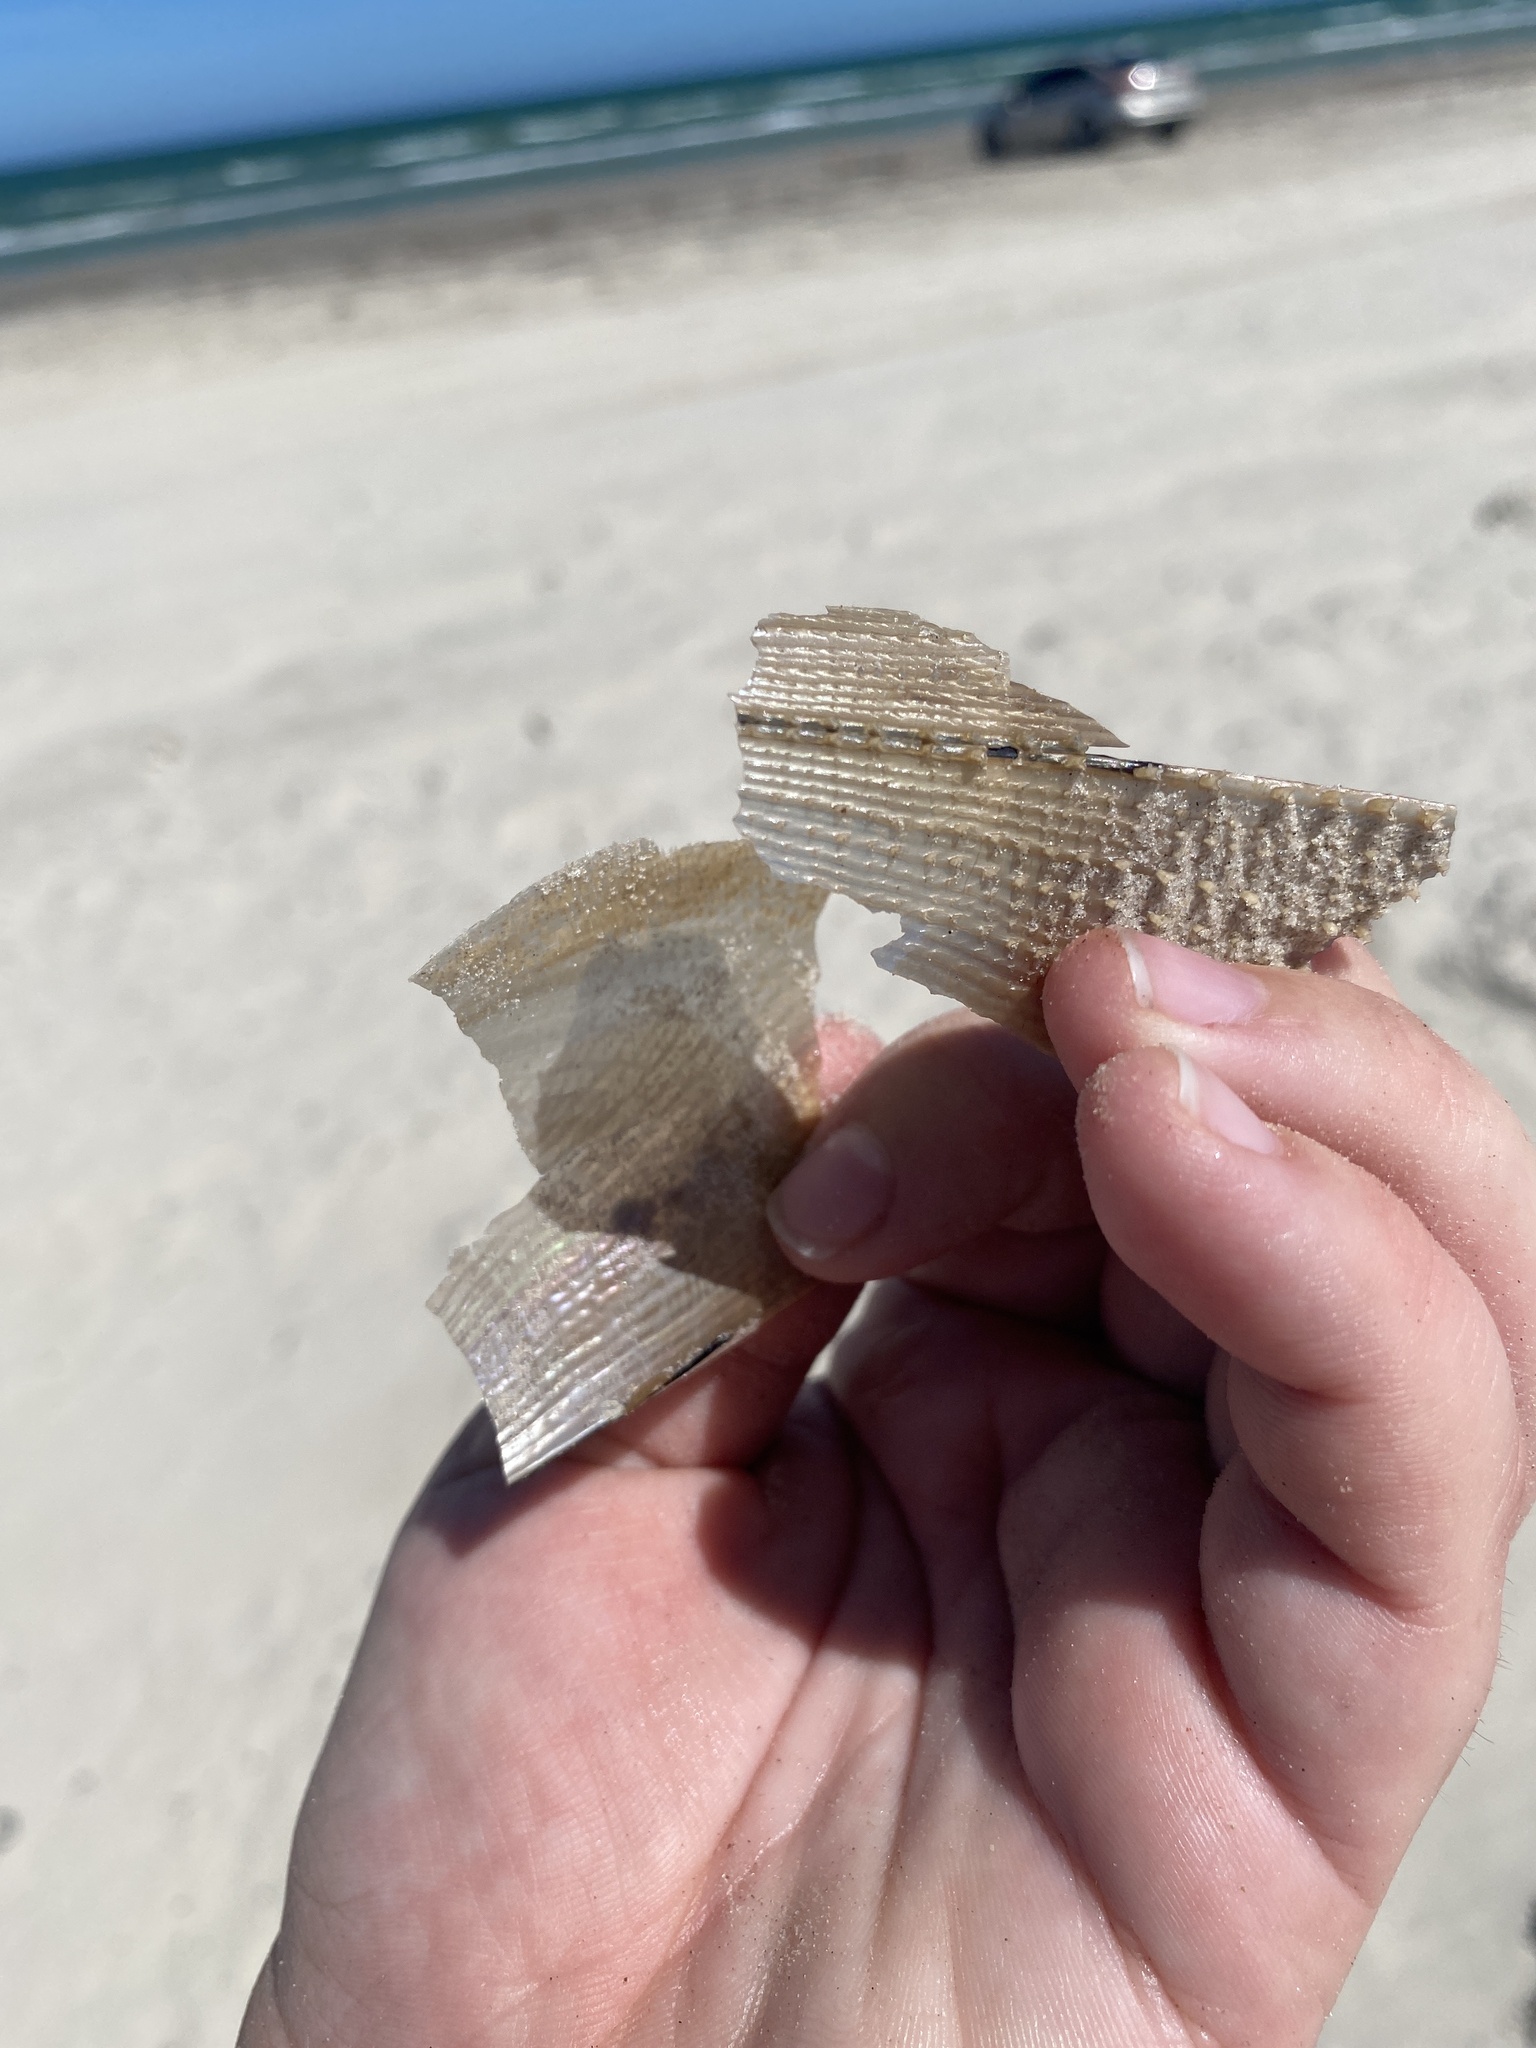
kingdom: Animalia
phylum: Mollusca
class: Bivalvia
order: Ostreida
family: Pinnidae
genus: Atrina
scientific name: Atrina serrata
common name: Saw-toothed penshell
